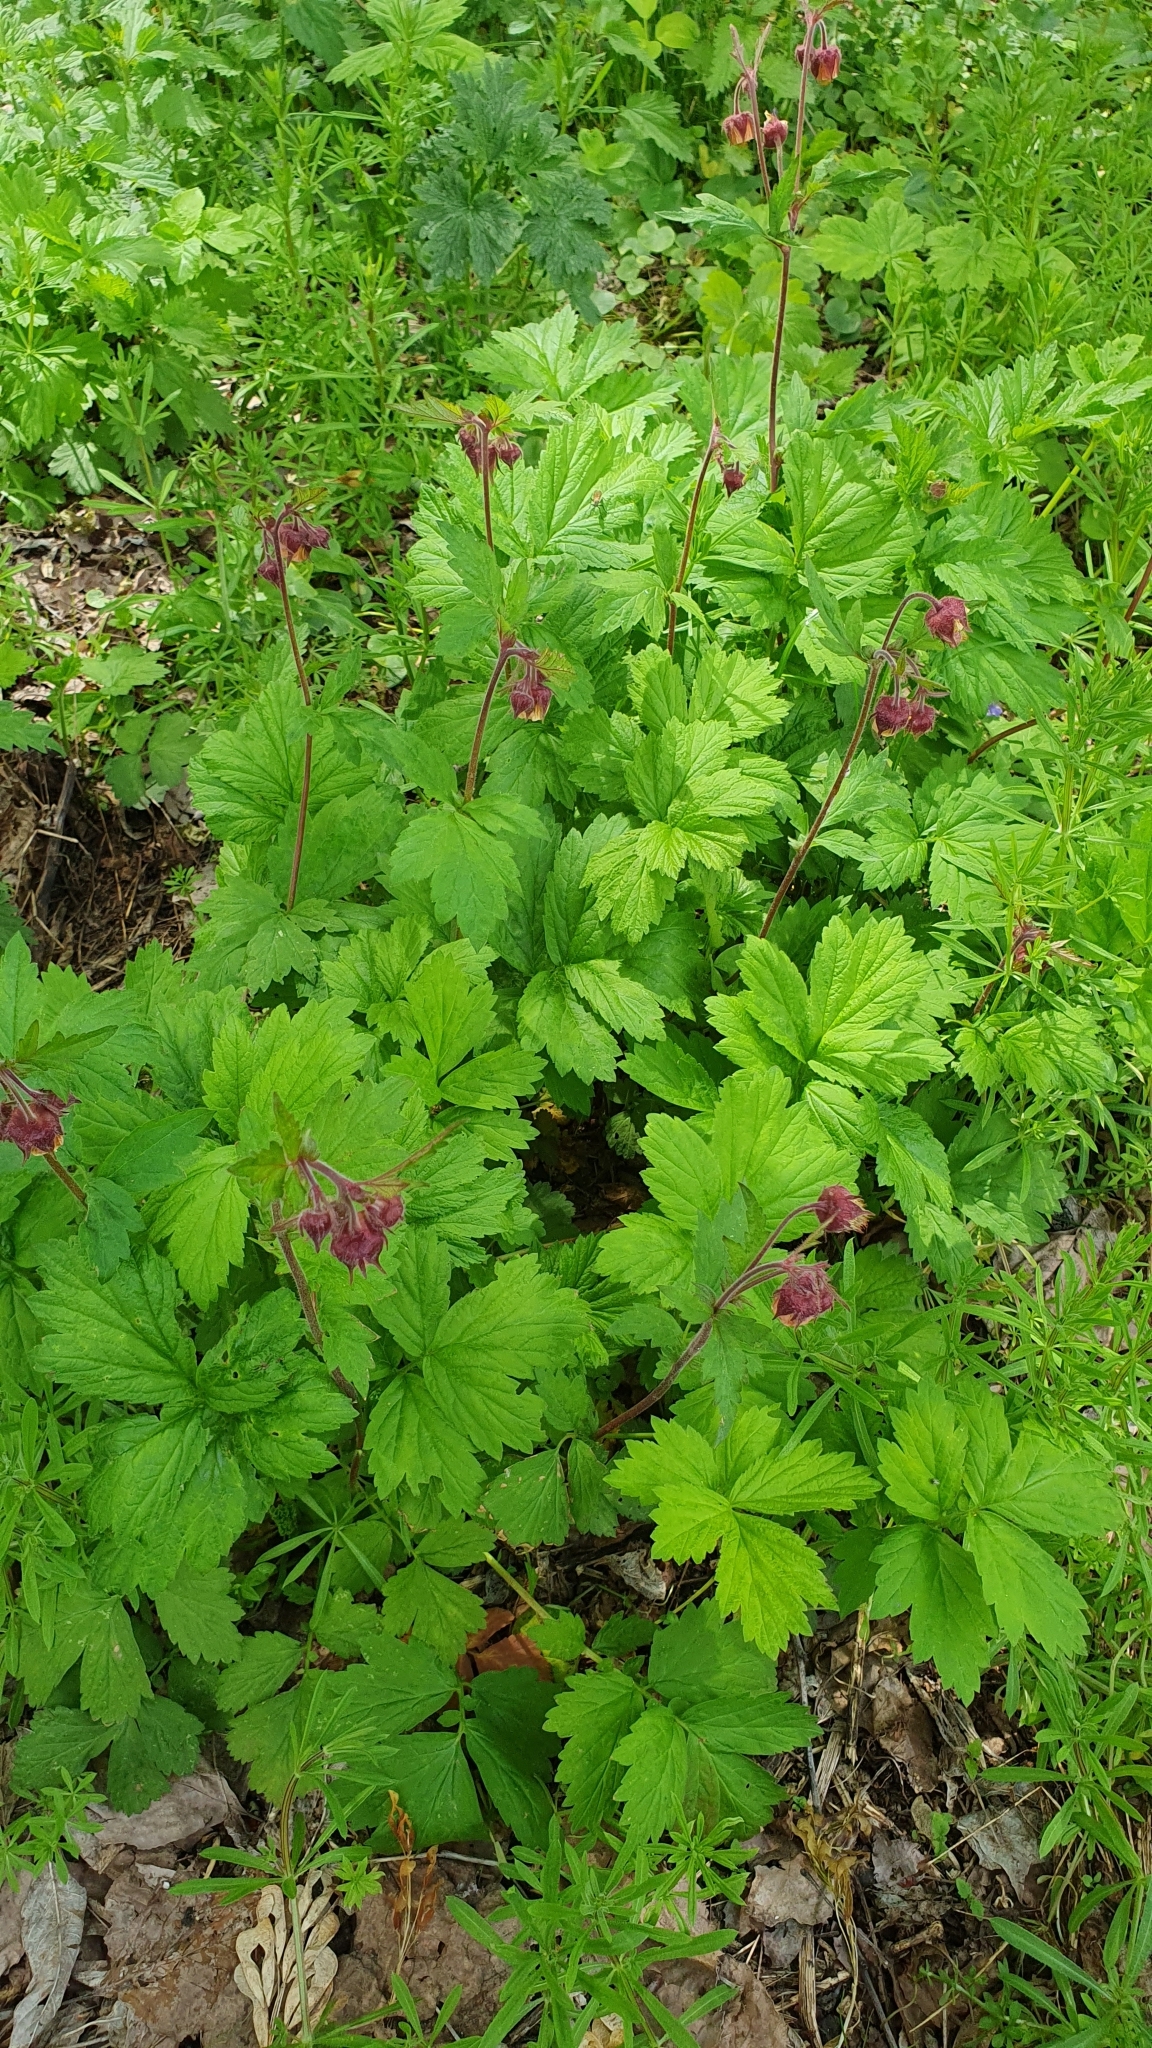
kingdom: Plantae
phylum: Tracheophyta
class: Magnoliopsida
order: Rosales
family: Rosaceae
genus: Geum
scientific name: Geum rivale
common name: Water avens
